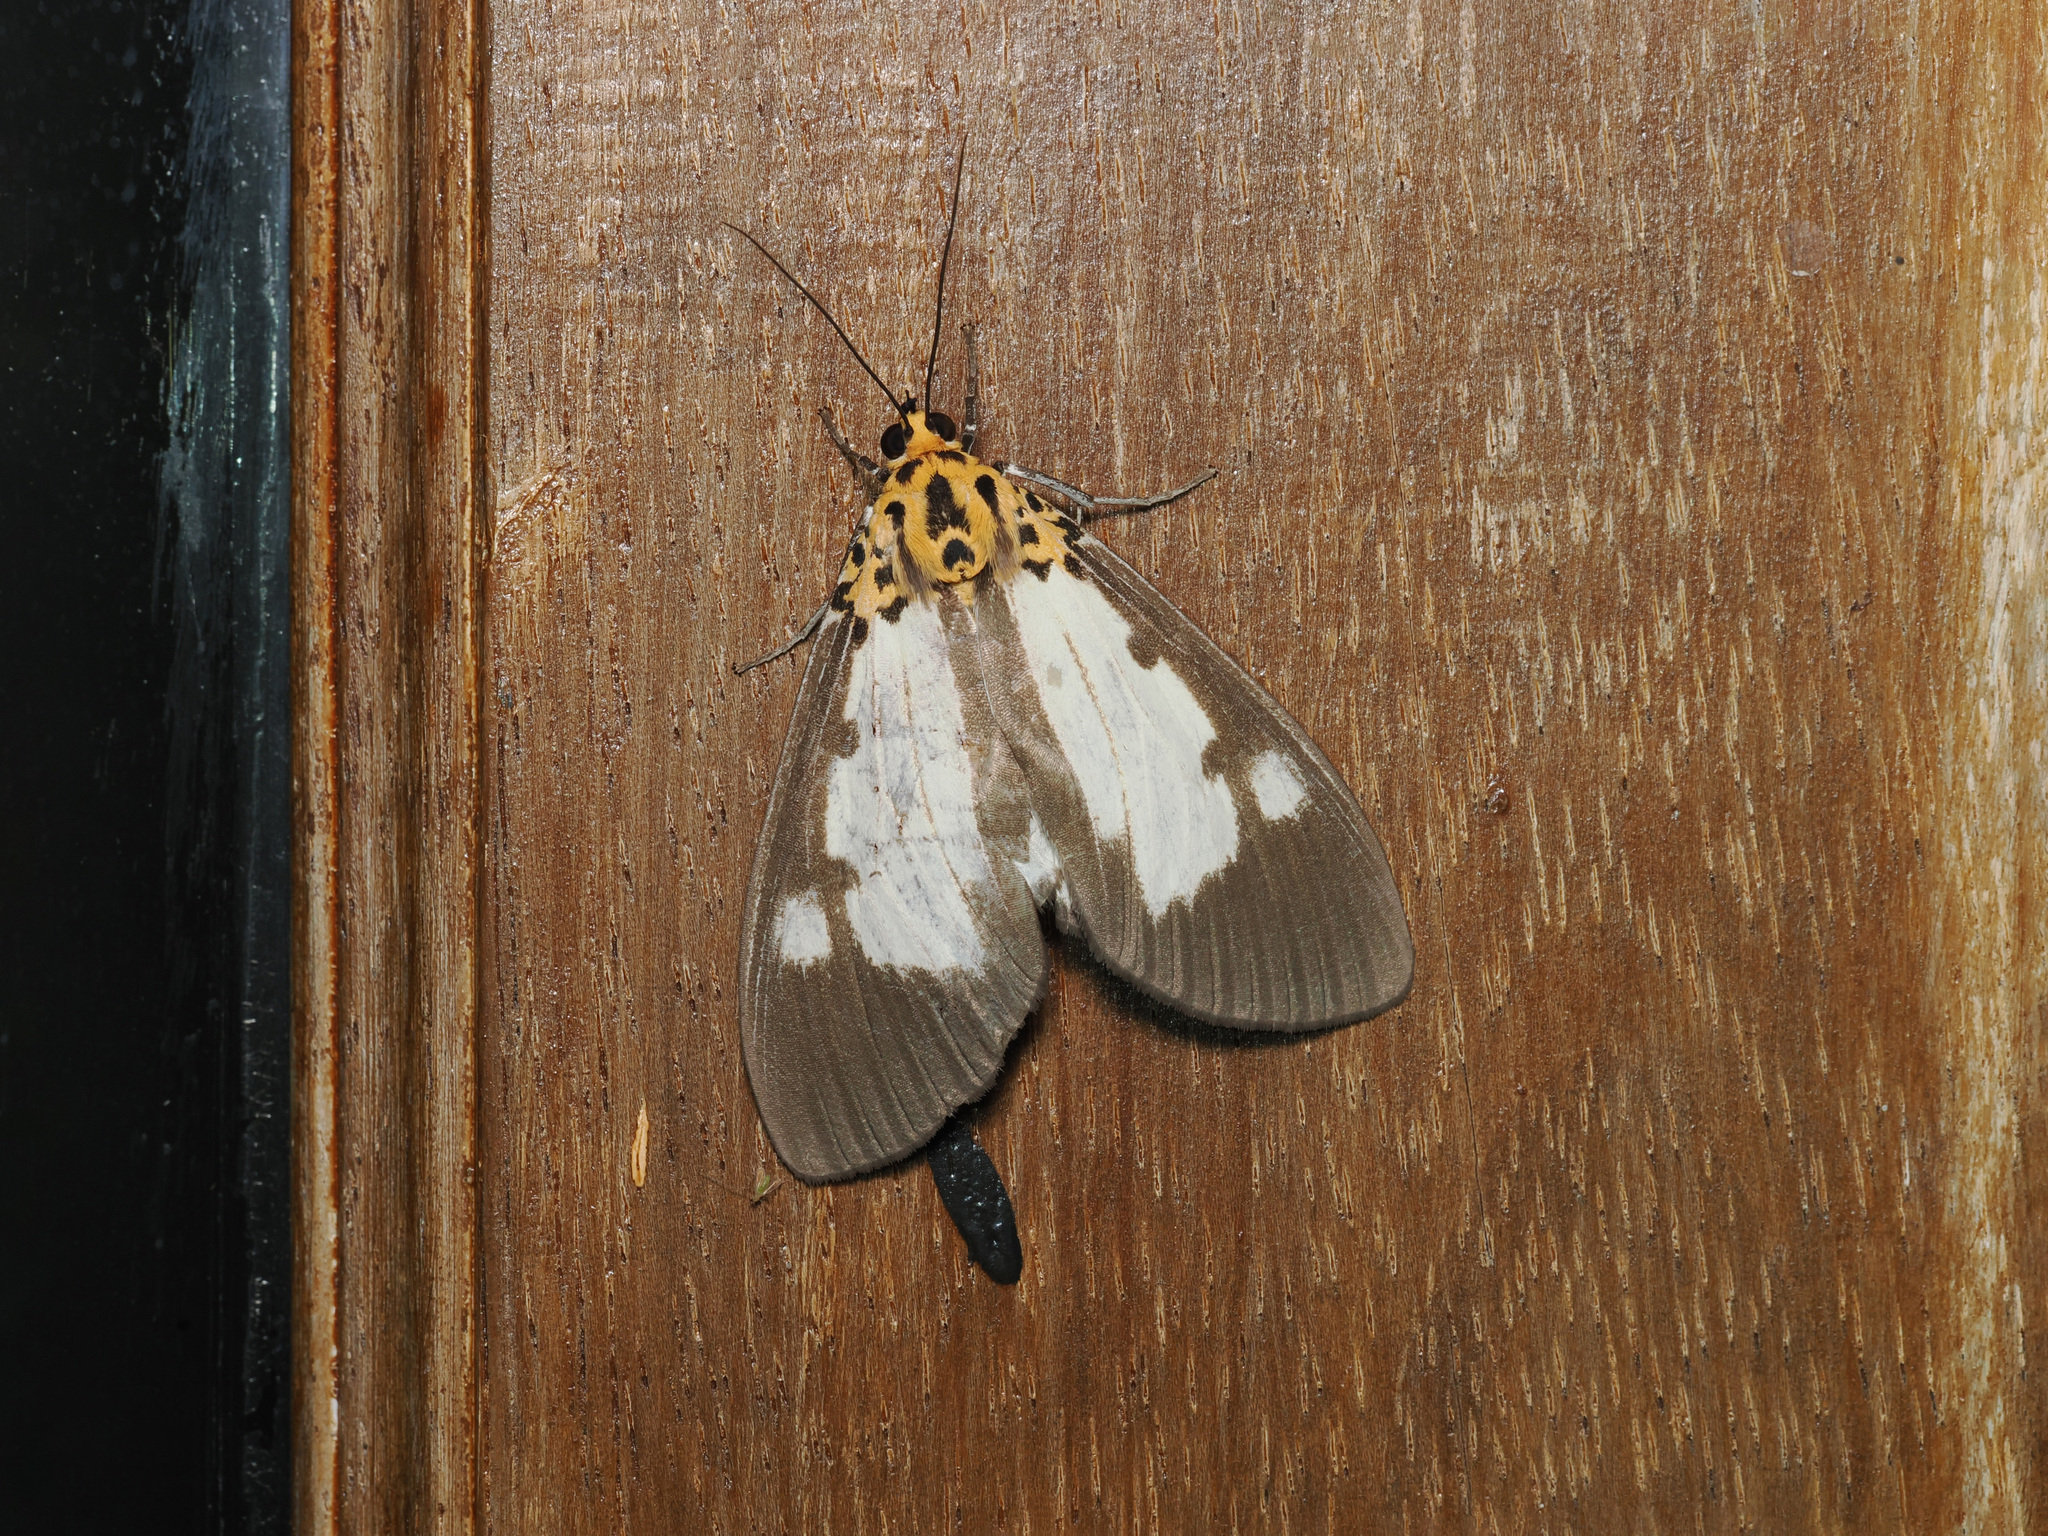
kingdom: Animalia
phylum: Arthropoda
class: Insecta
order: Lepidoptera
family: Erebidae
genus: Asota
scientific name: Asota plana
